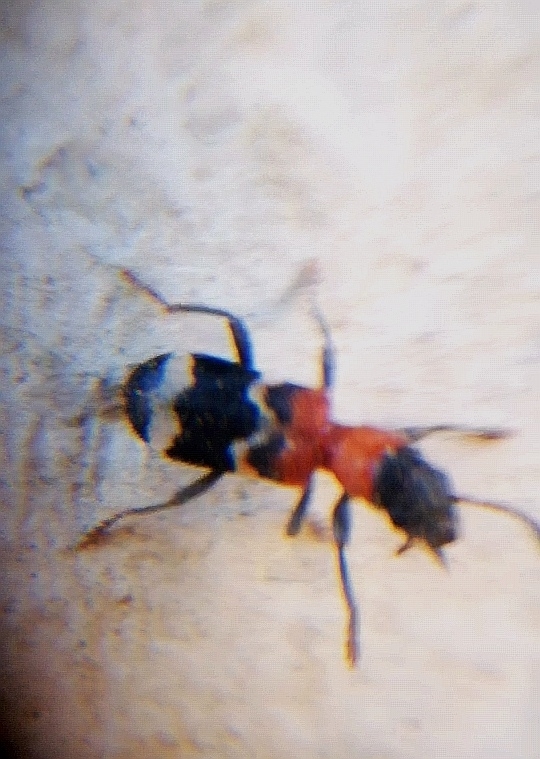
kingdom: Animalia
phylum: Arthropoda
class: Insecta
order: Coleoptera
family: Cleridae
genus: Thanasimus
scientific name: Thanasimus formicarius
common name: Ant beetle
